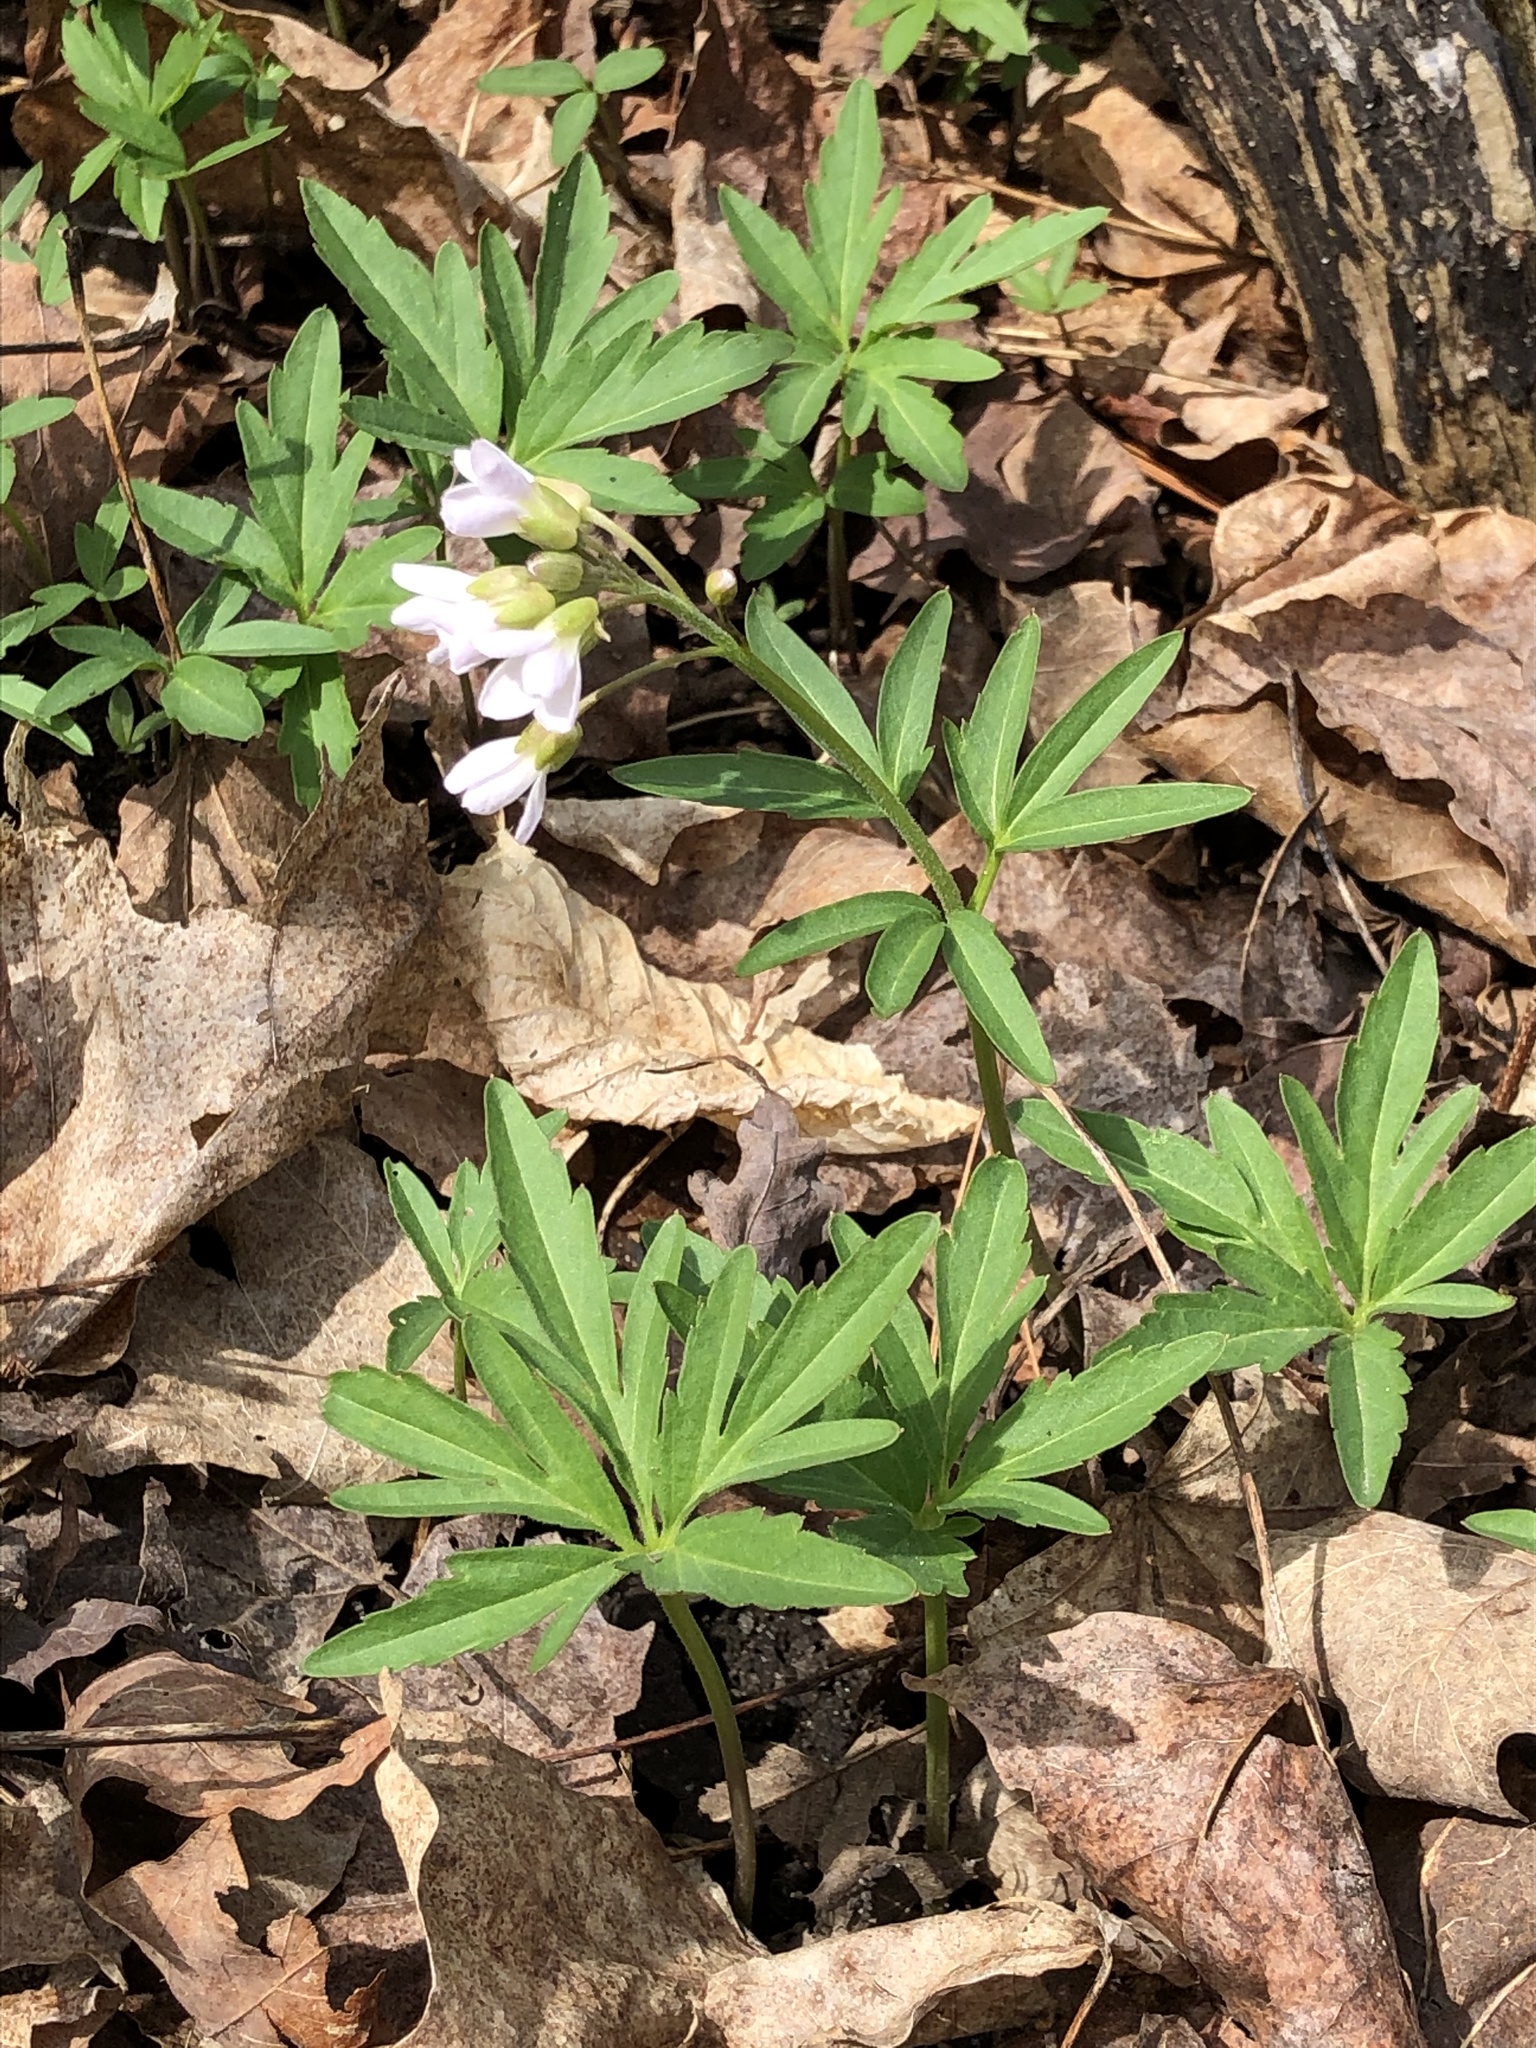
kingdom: Plantae
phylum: Tracheophyta
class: Magnoliopsida
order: Brassicales
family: Brassicaceae
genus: Cardamine
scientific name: Cardamine concatenata
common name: Cut-leaf toothcup
